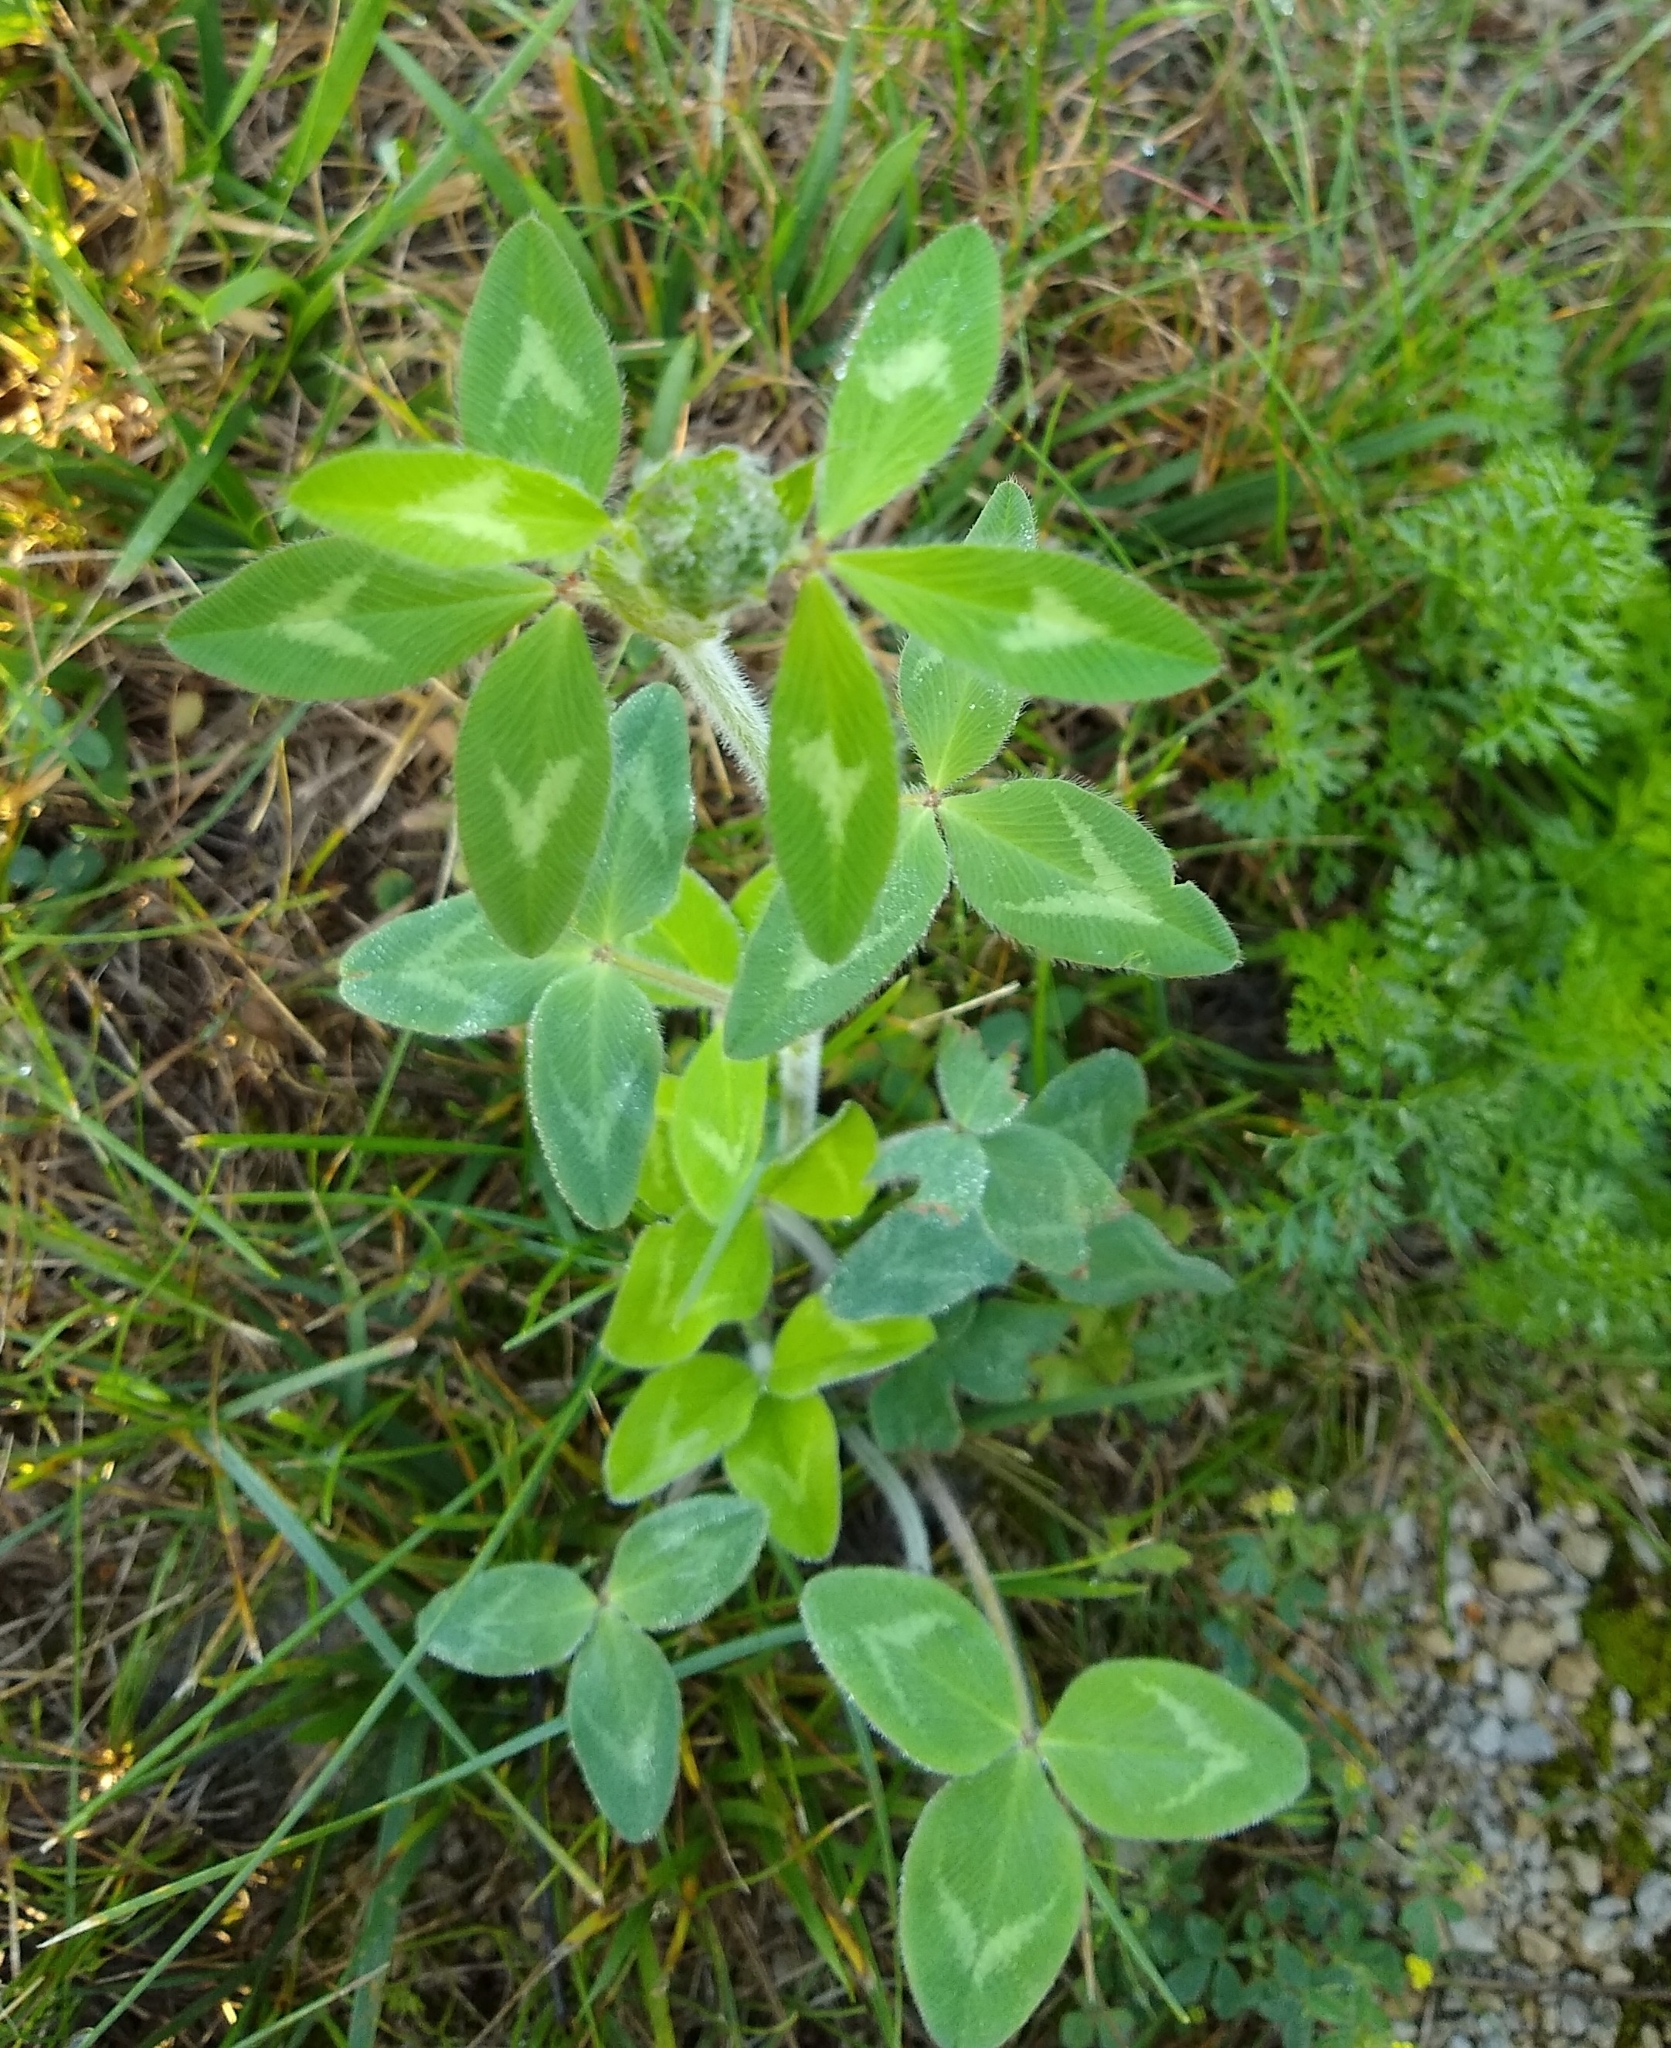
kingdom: Plantae
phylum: Tracheophyta
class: Magnoliopsida
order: Fabales
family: Fabaceae
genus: Trifolium
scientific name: Trifolium pratense
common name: Red clover
